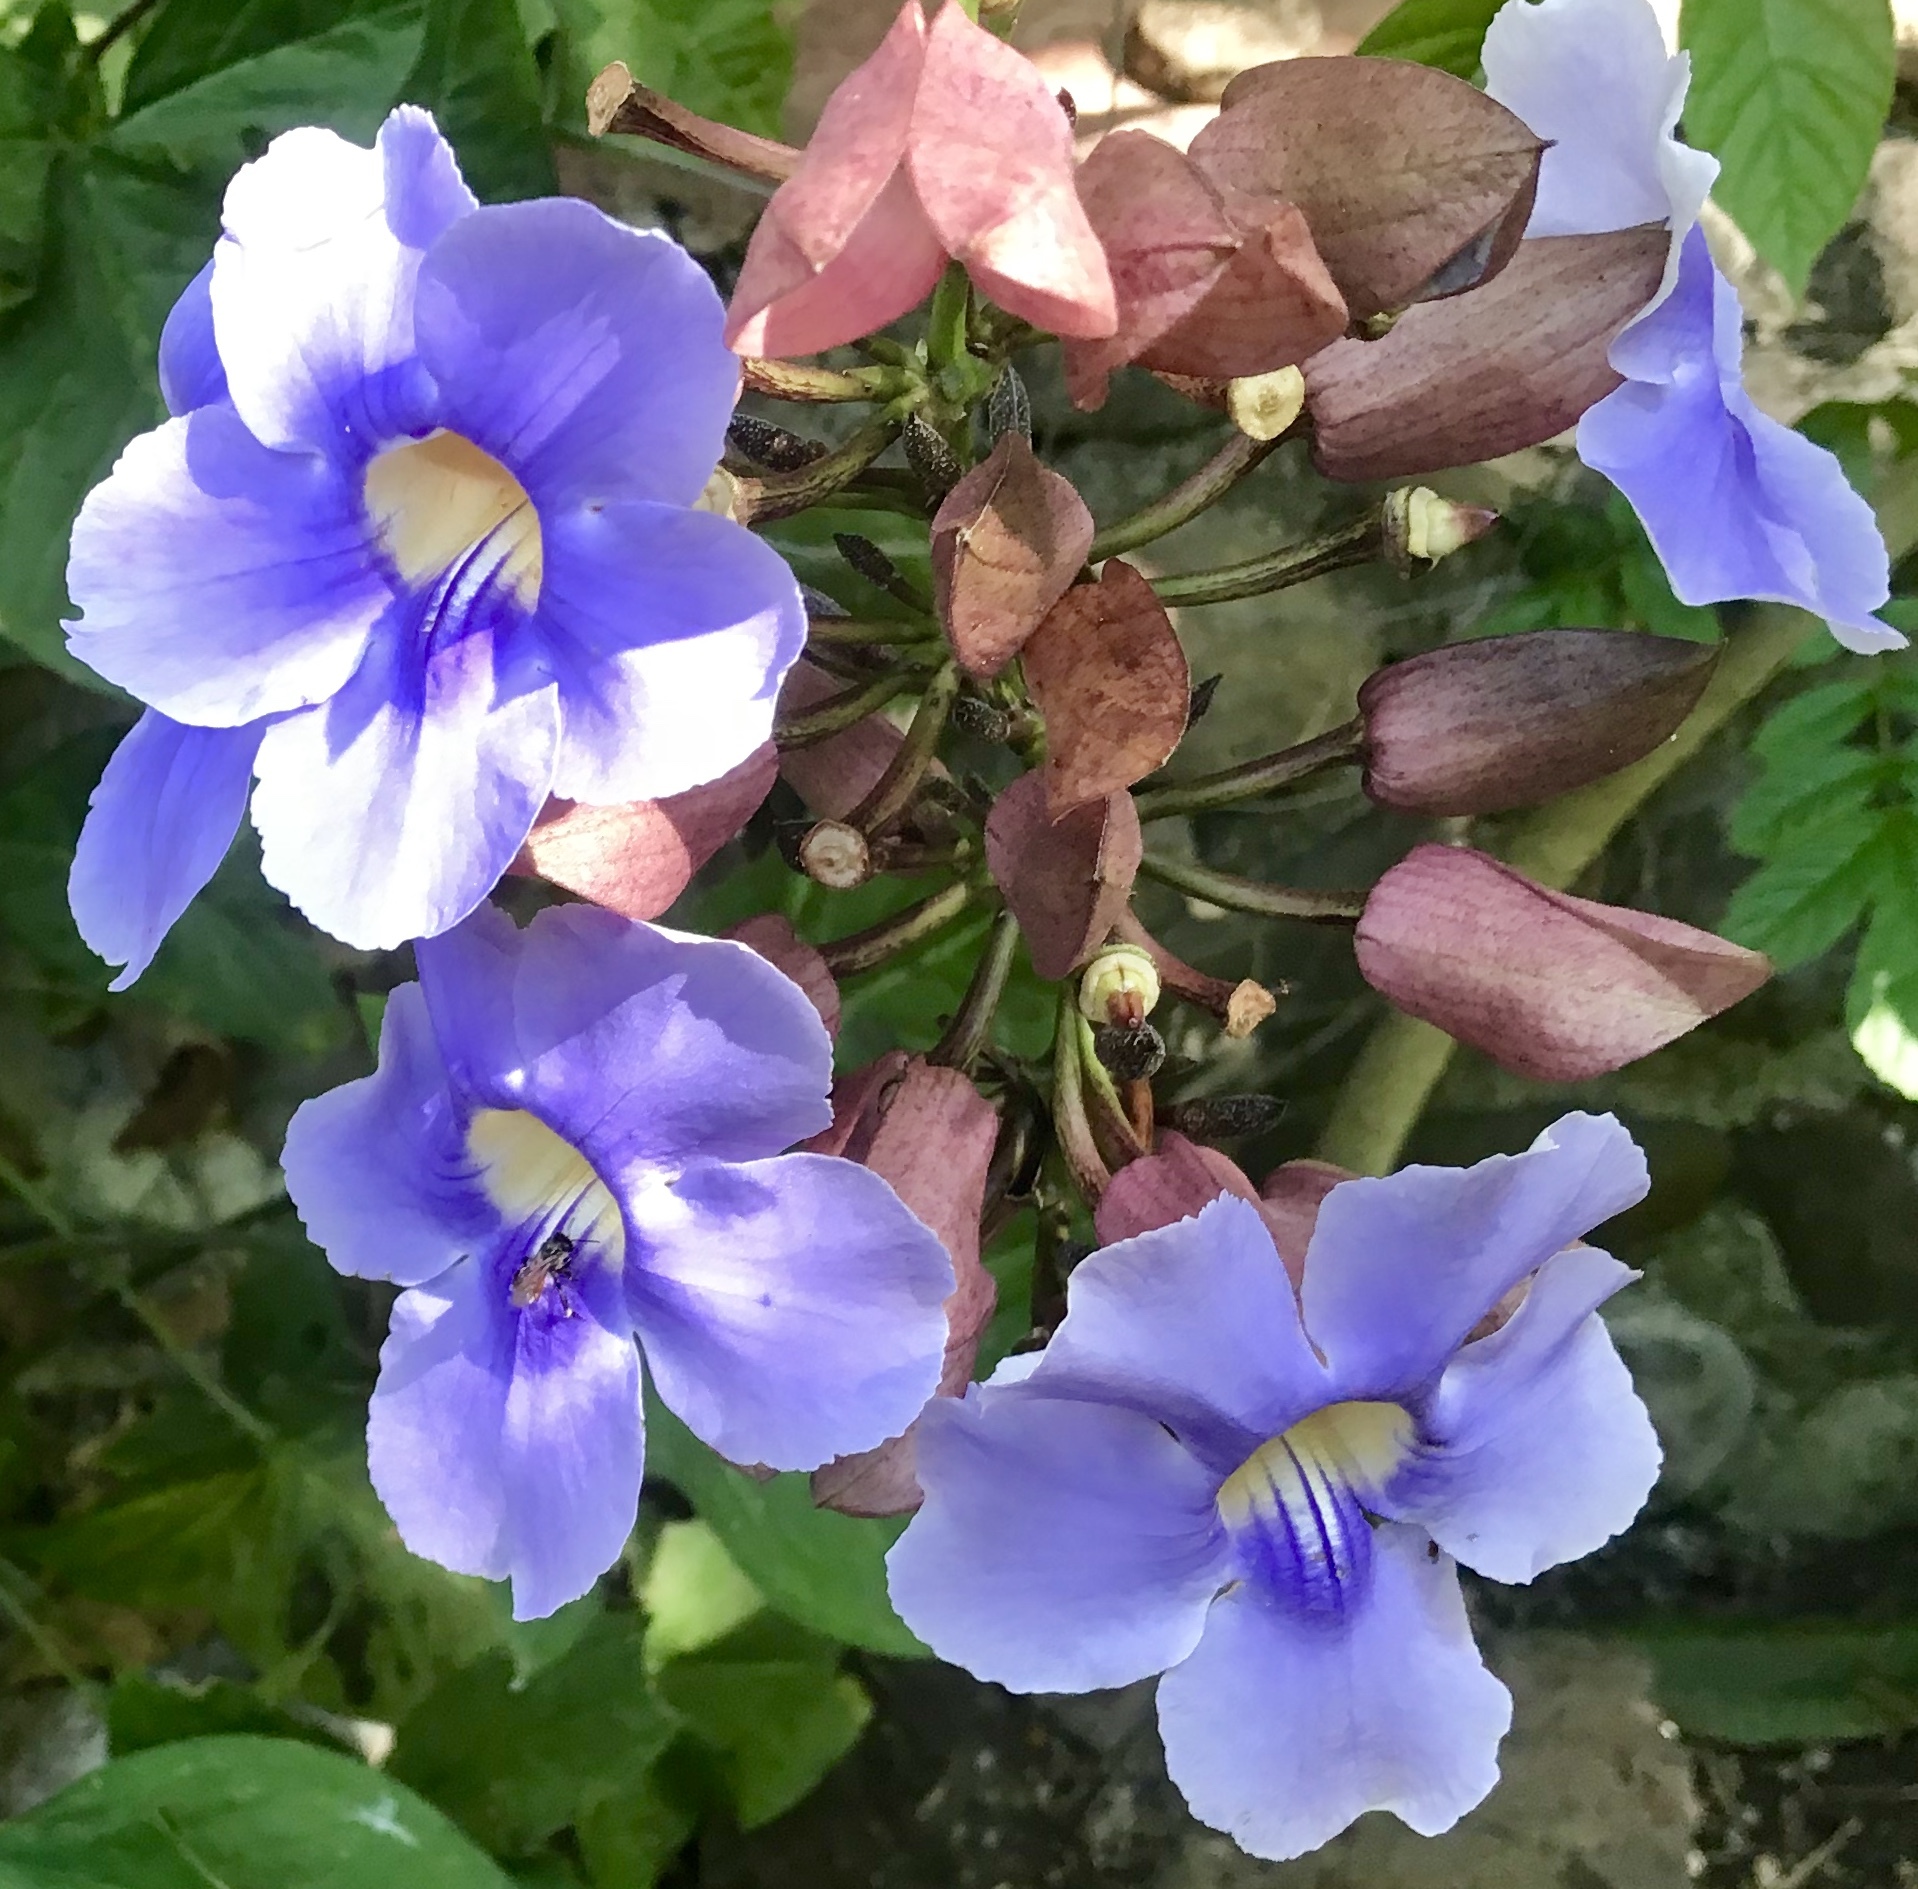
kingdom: Animalia
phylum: Arthropoda
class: Insecta
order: Hymenoptera
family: Apidae
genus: Trigona
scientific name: Trigona fulviventris
